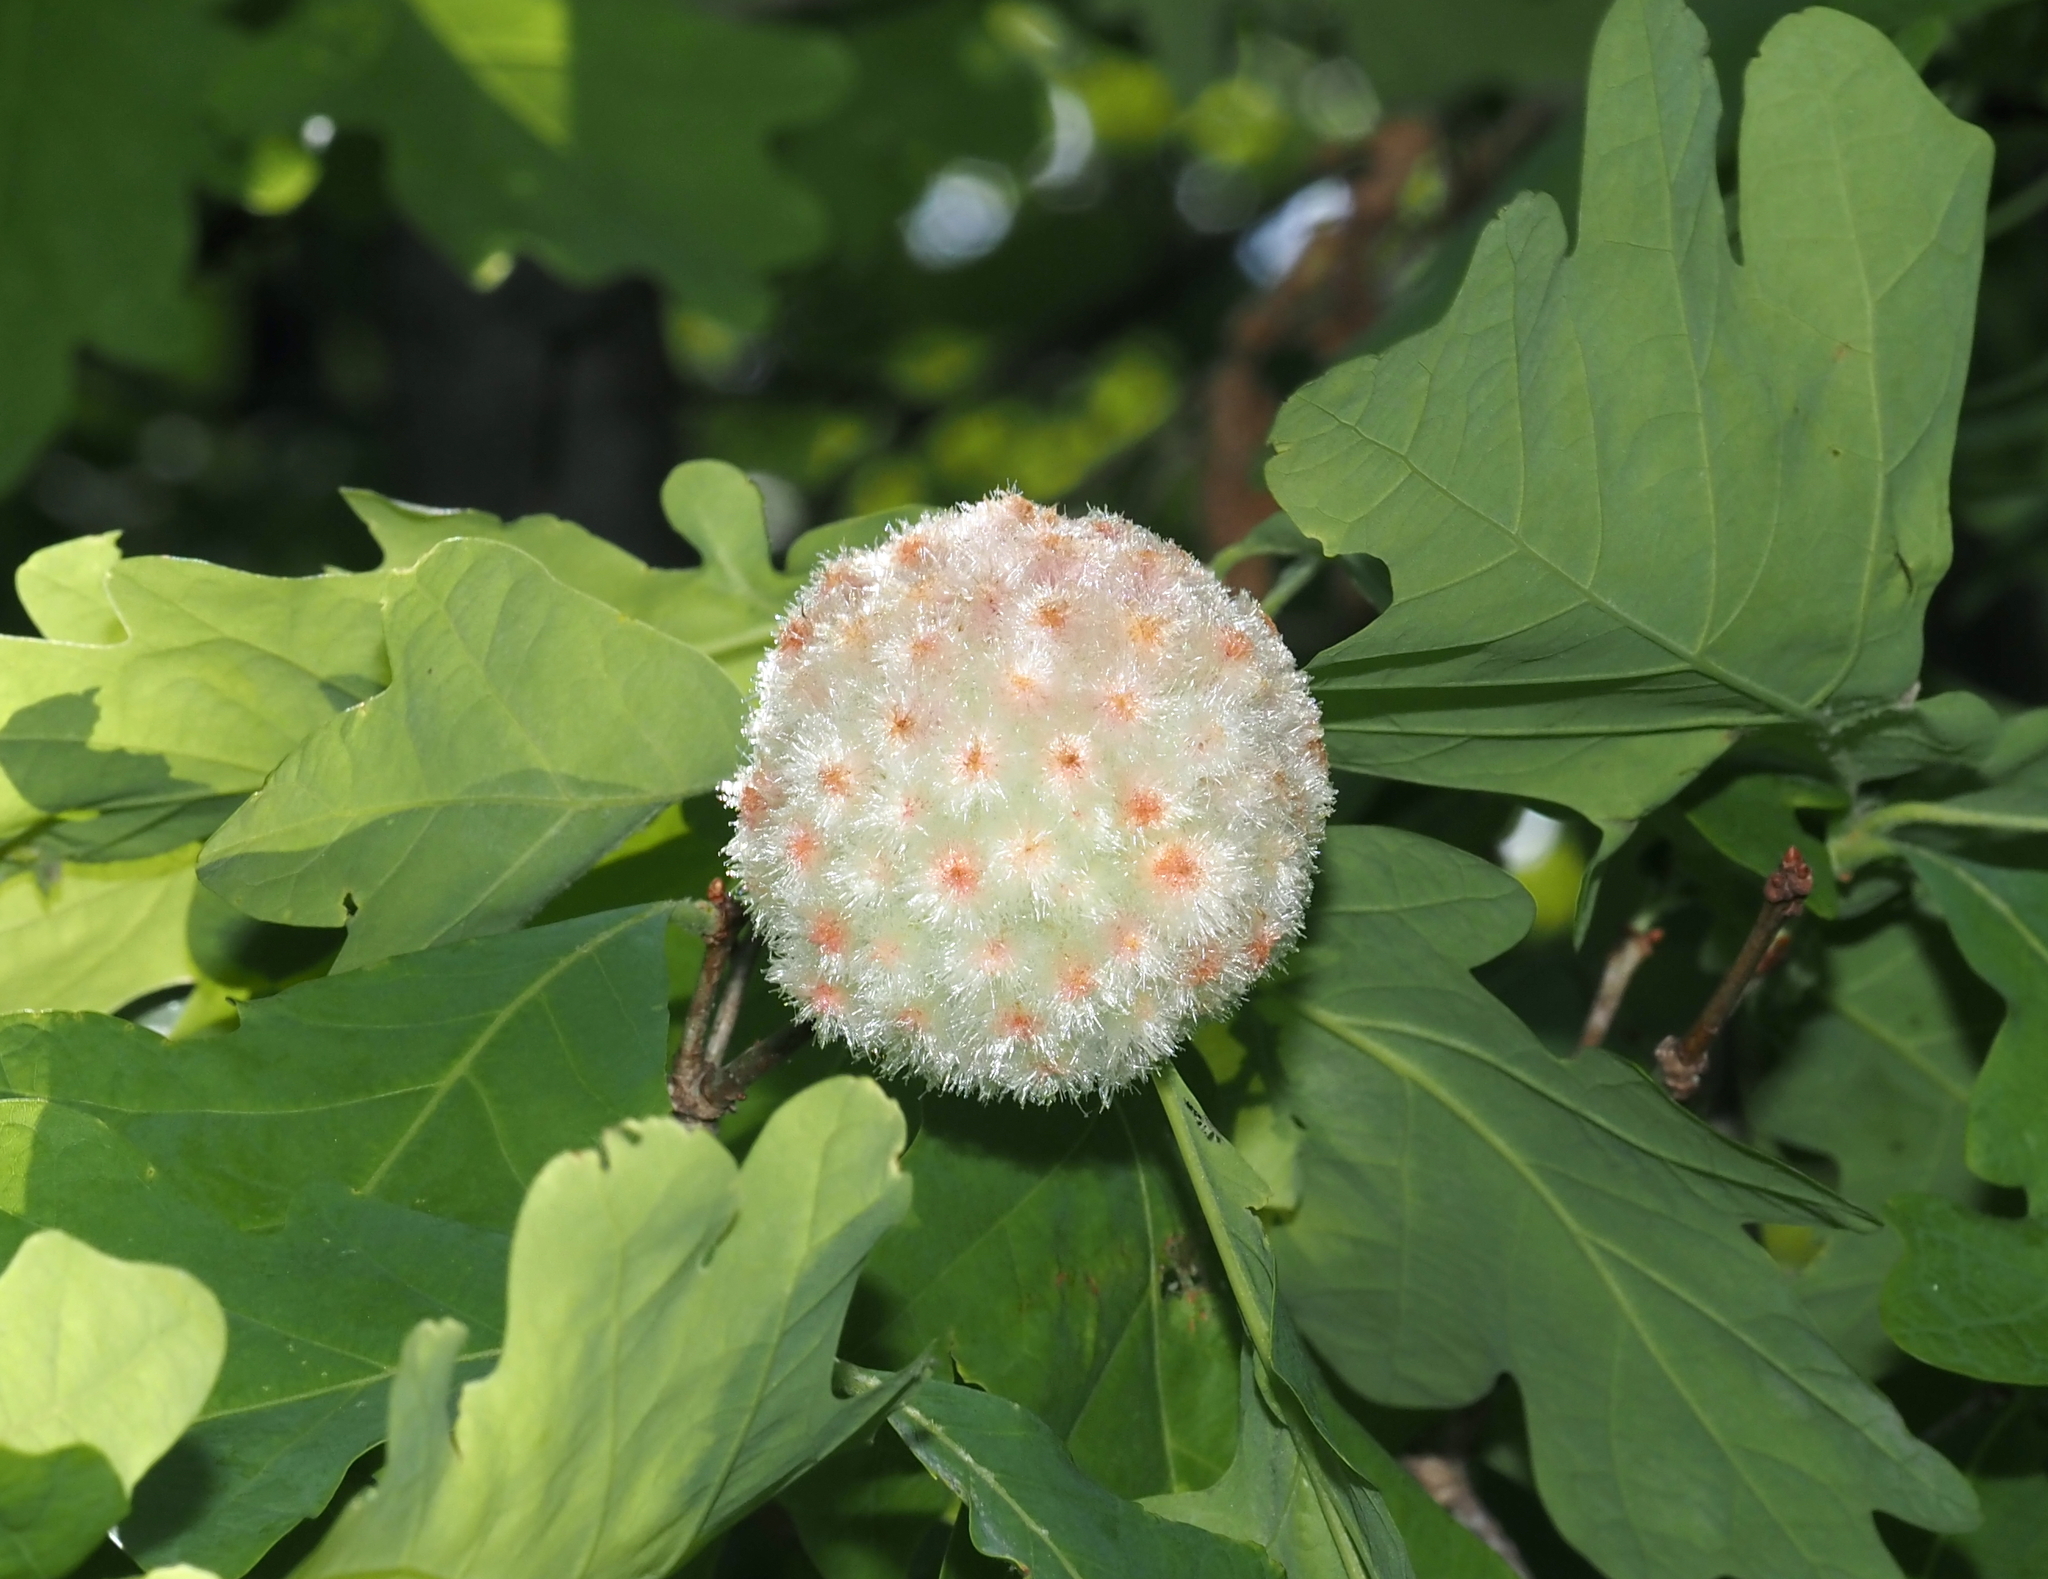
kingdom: Animalia
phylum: Arthropoda
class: Insecta
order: Hymenoptera
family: Cynipidae
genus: Callirhytis
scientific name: Callirhytis
